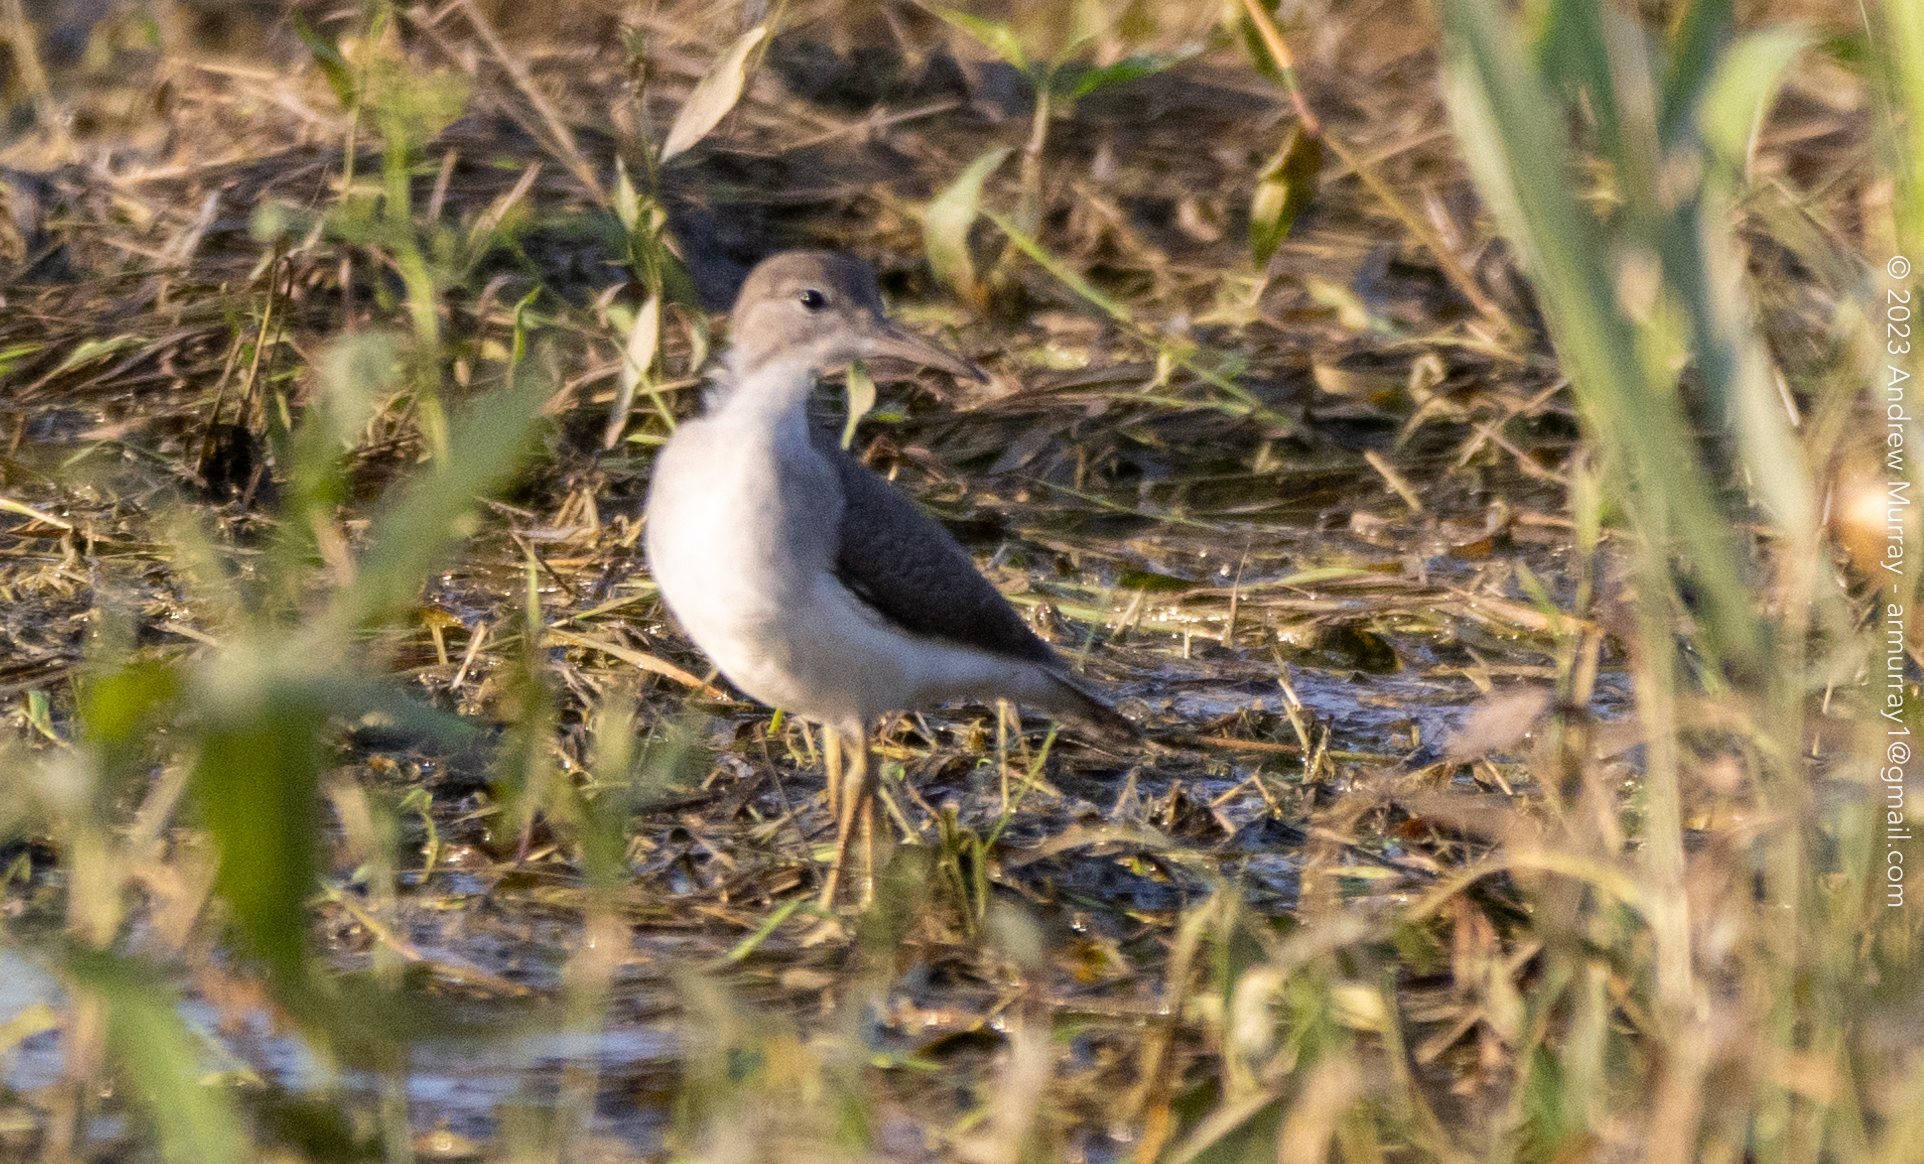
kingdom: Animalia
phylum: Chordata
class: Aves
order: Charadriiformes
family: Scolopacidae
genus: Actitis
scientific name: Actitis macularius
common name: Spotted sandpiper
